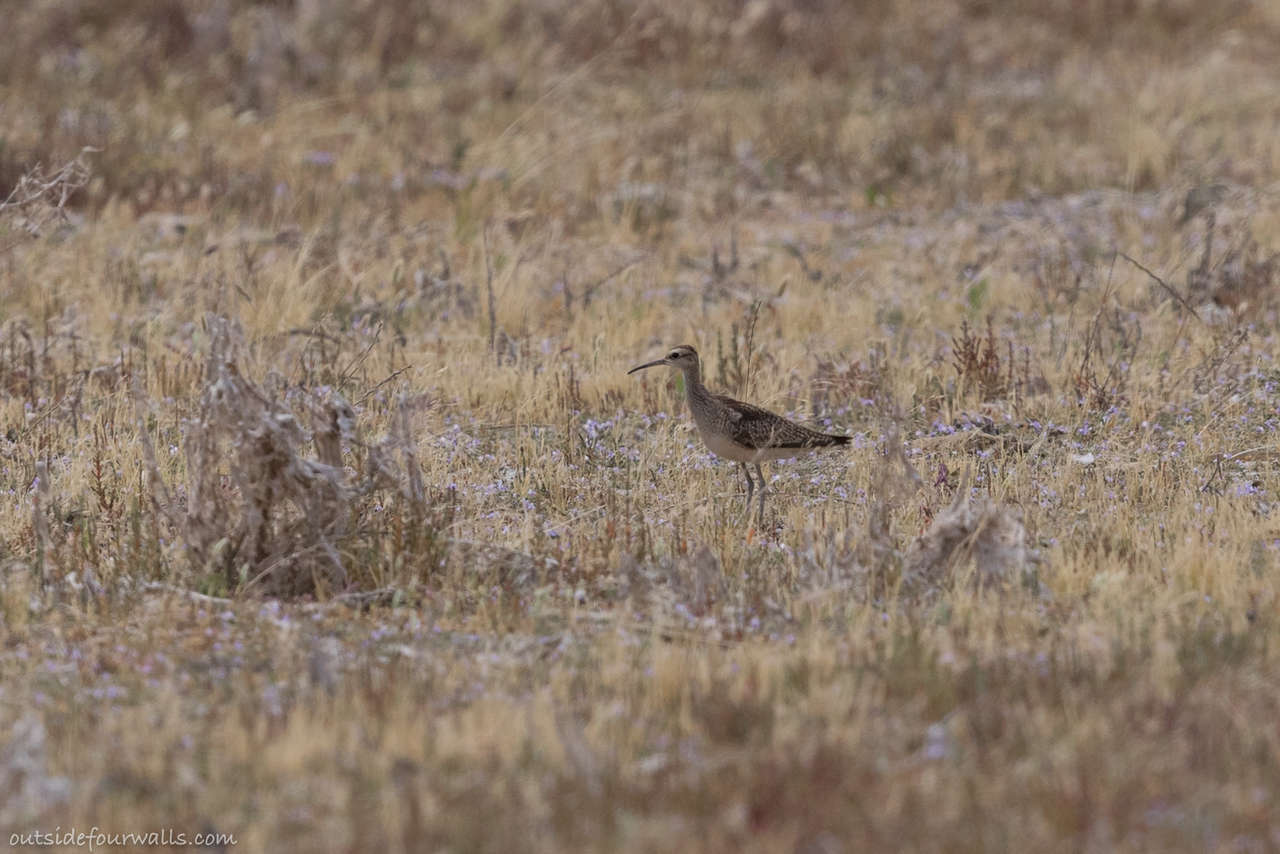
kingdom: Animalia
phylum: Chordata
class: Aves
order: Charadriiformes
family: Scolopacidae
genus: Numenius
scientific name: Numenius minutus
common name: Little curlew
